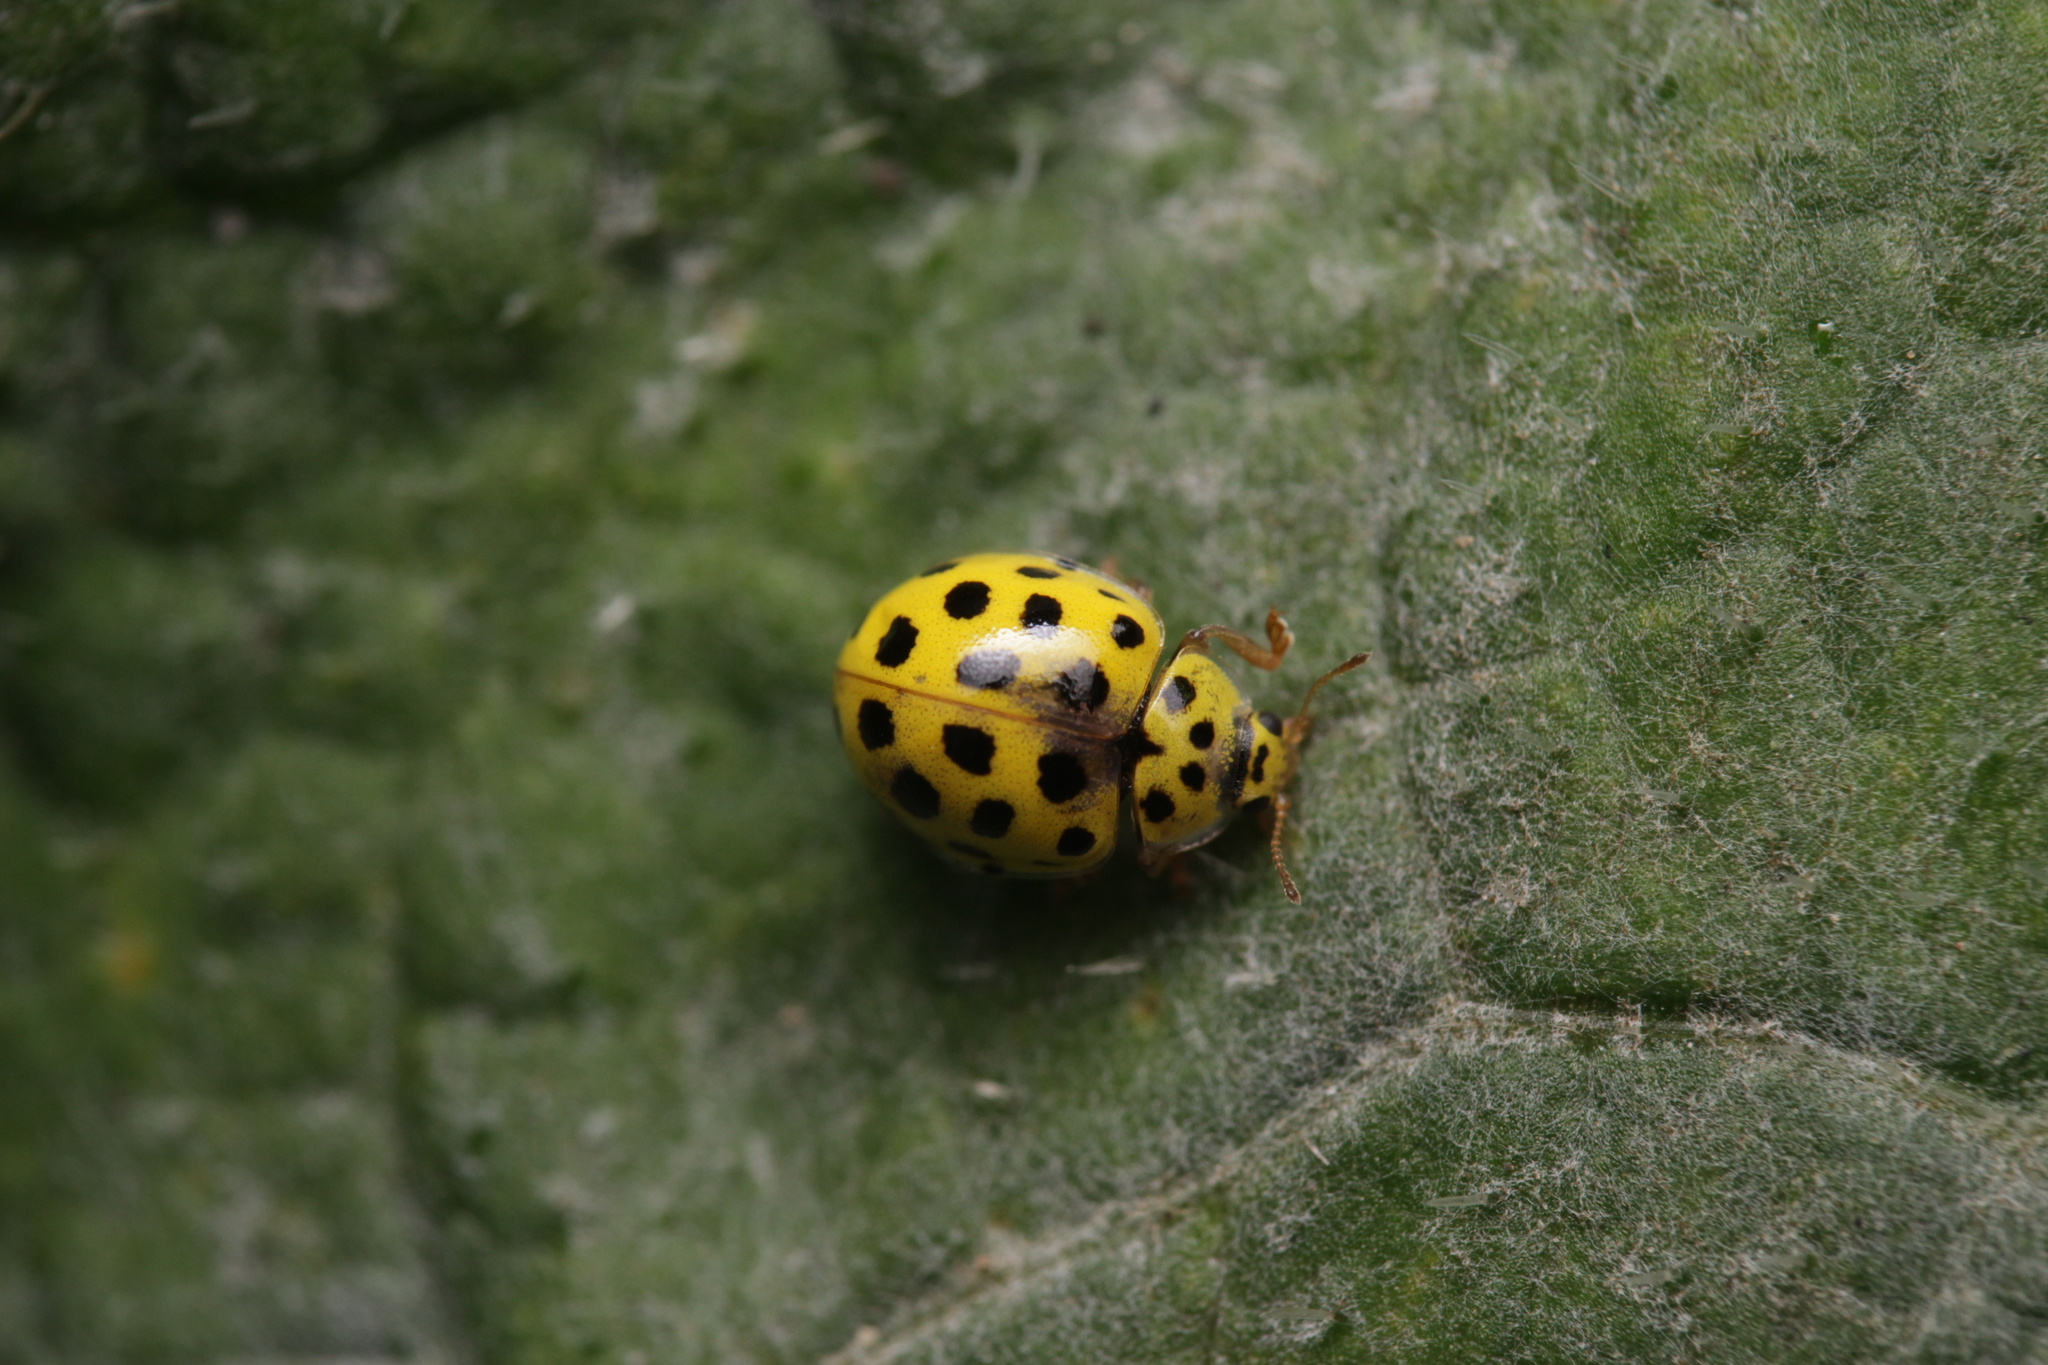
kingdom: Animalia
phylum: Arthropoda
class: Insecta
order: Coleoptera
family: Coccinellidae
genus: Psyllobora
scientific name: Psyllobora vigintiduopunctata
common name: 22-spot ladybird
